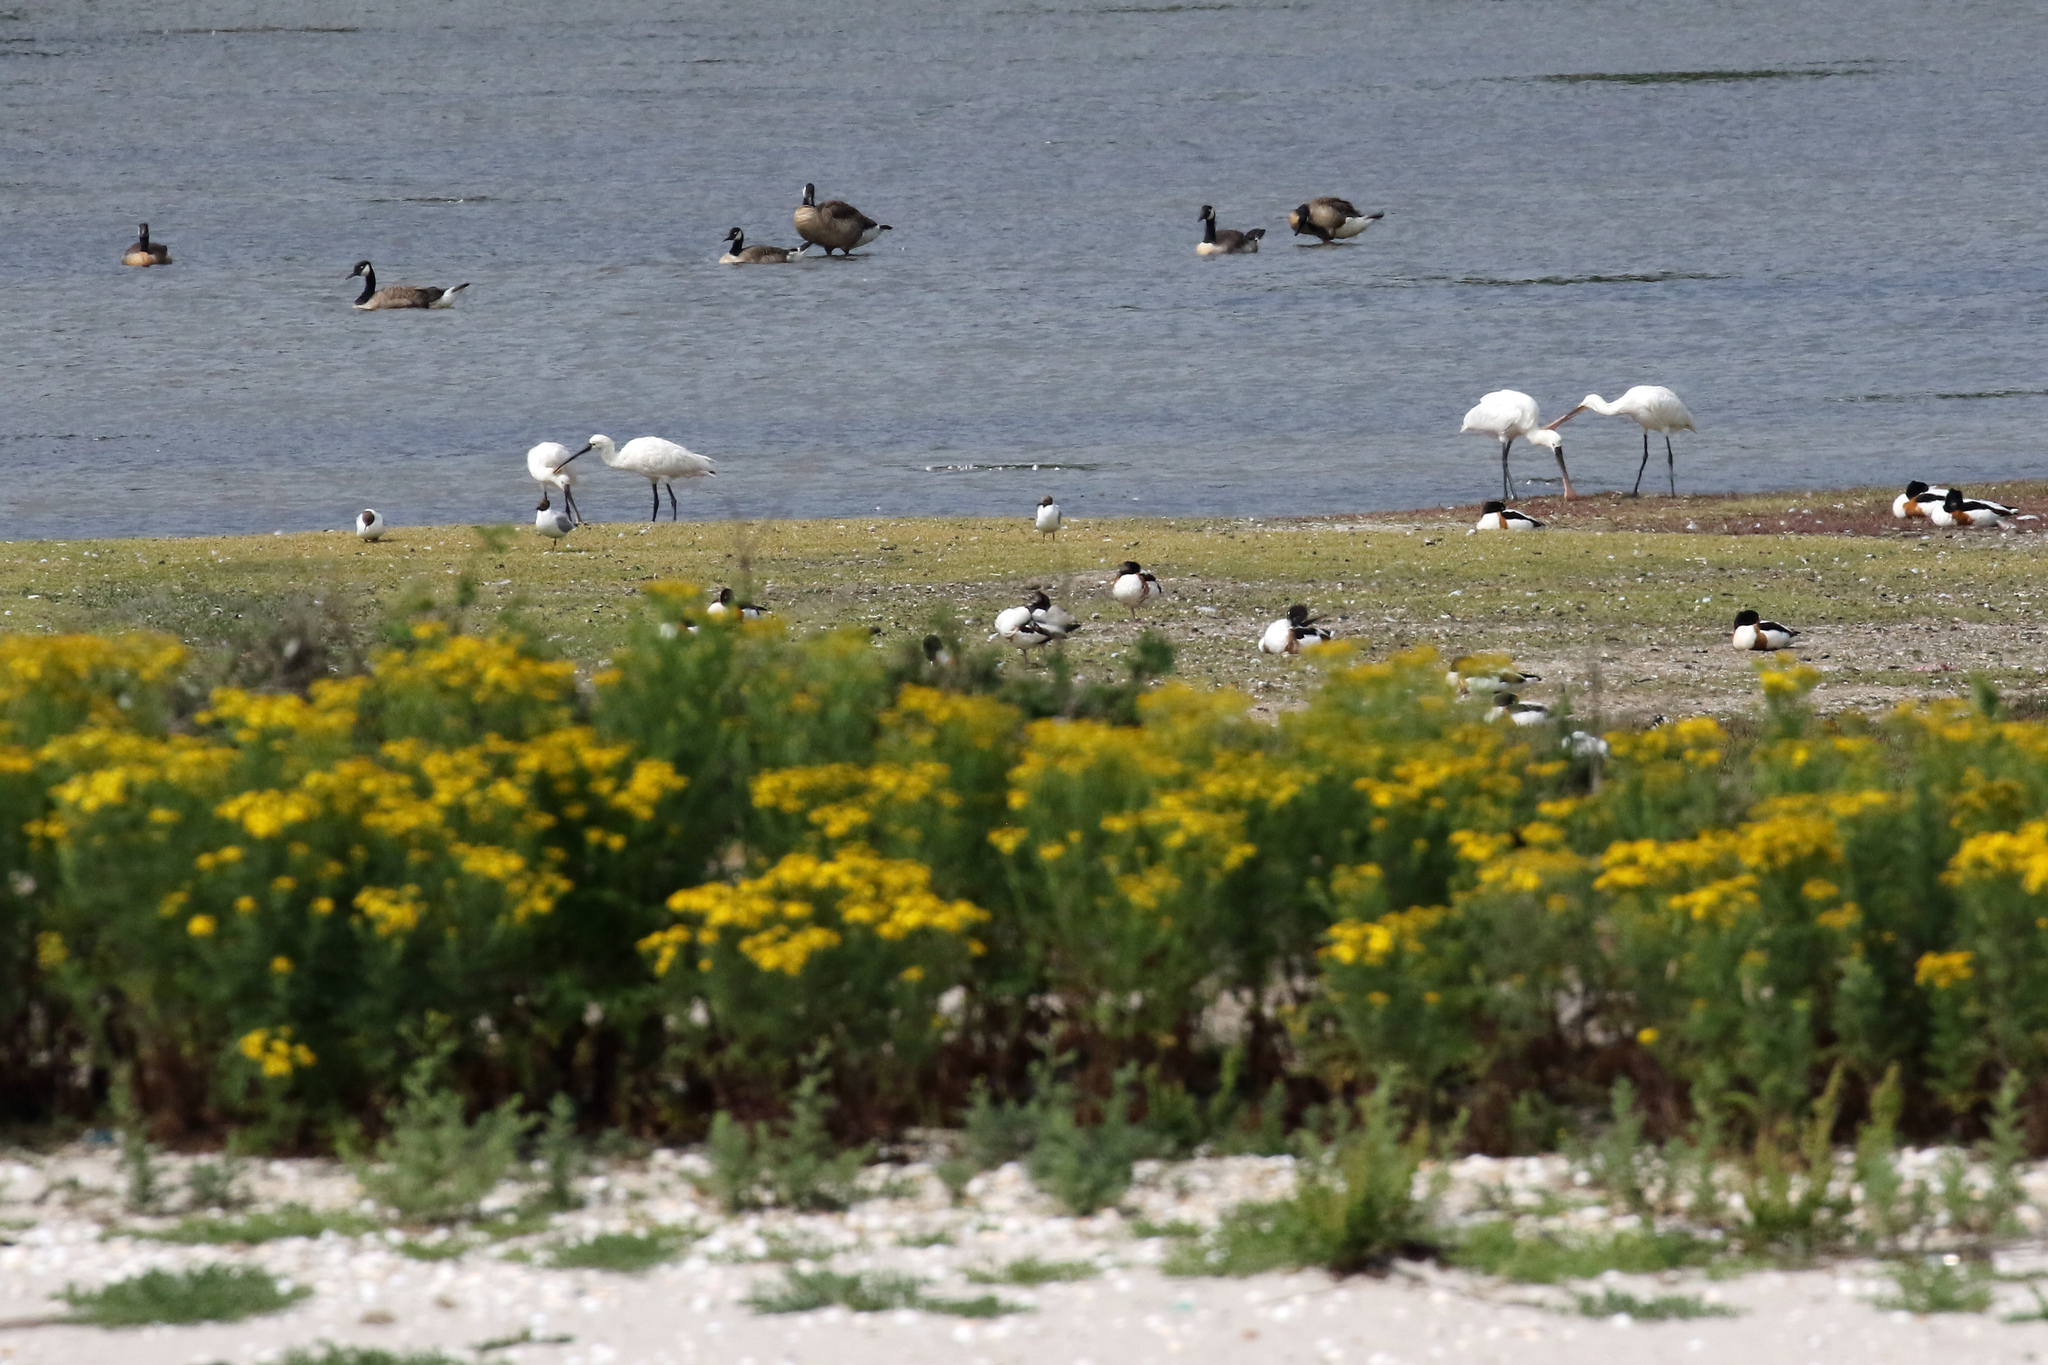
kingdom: Animalia
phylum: Chordata
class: Aves
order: Pelecaniformes
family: Threskiornithidae
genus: Platalea
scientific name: Platalea leucorodia
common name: Eurasian spoonbill
